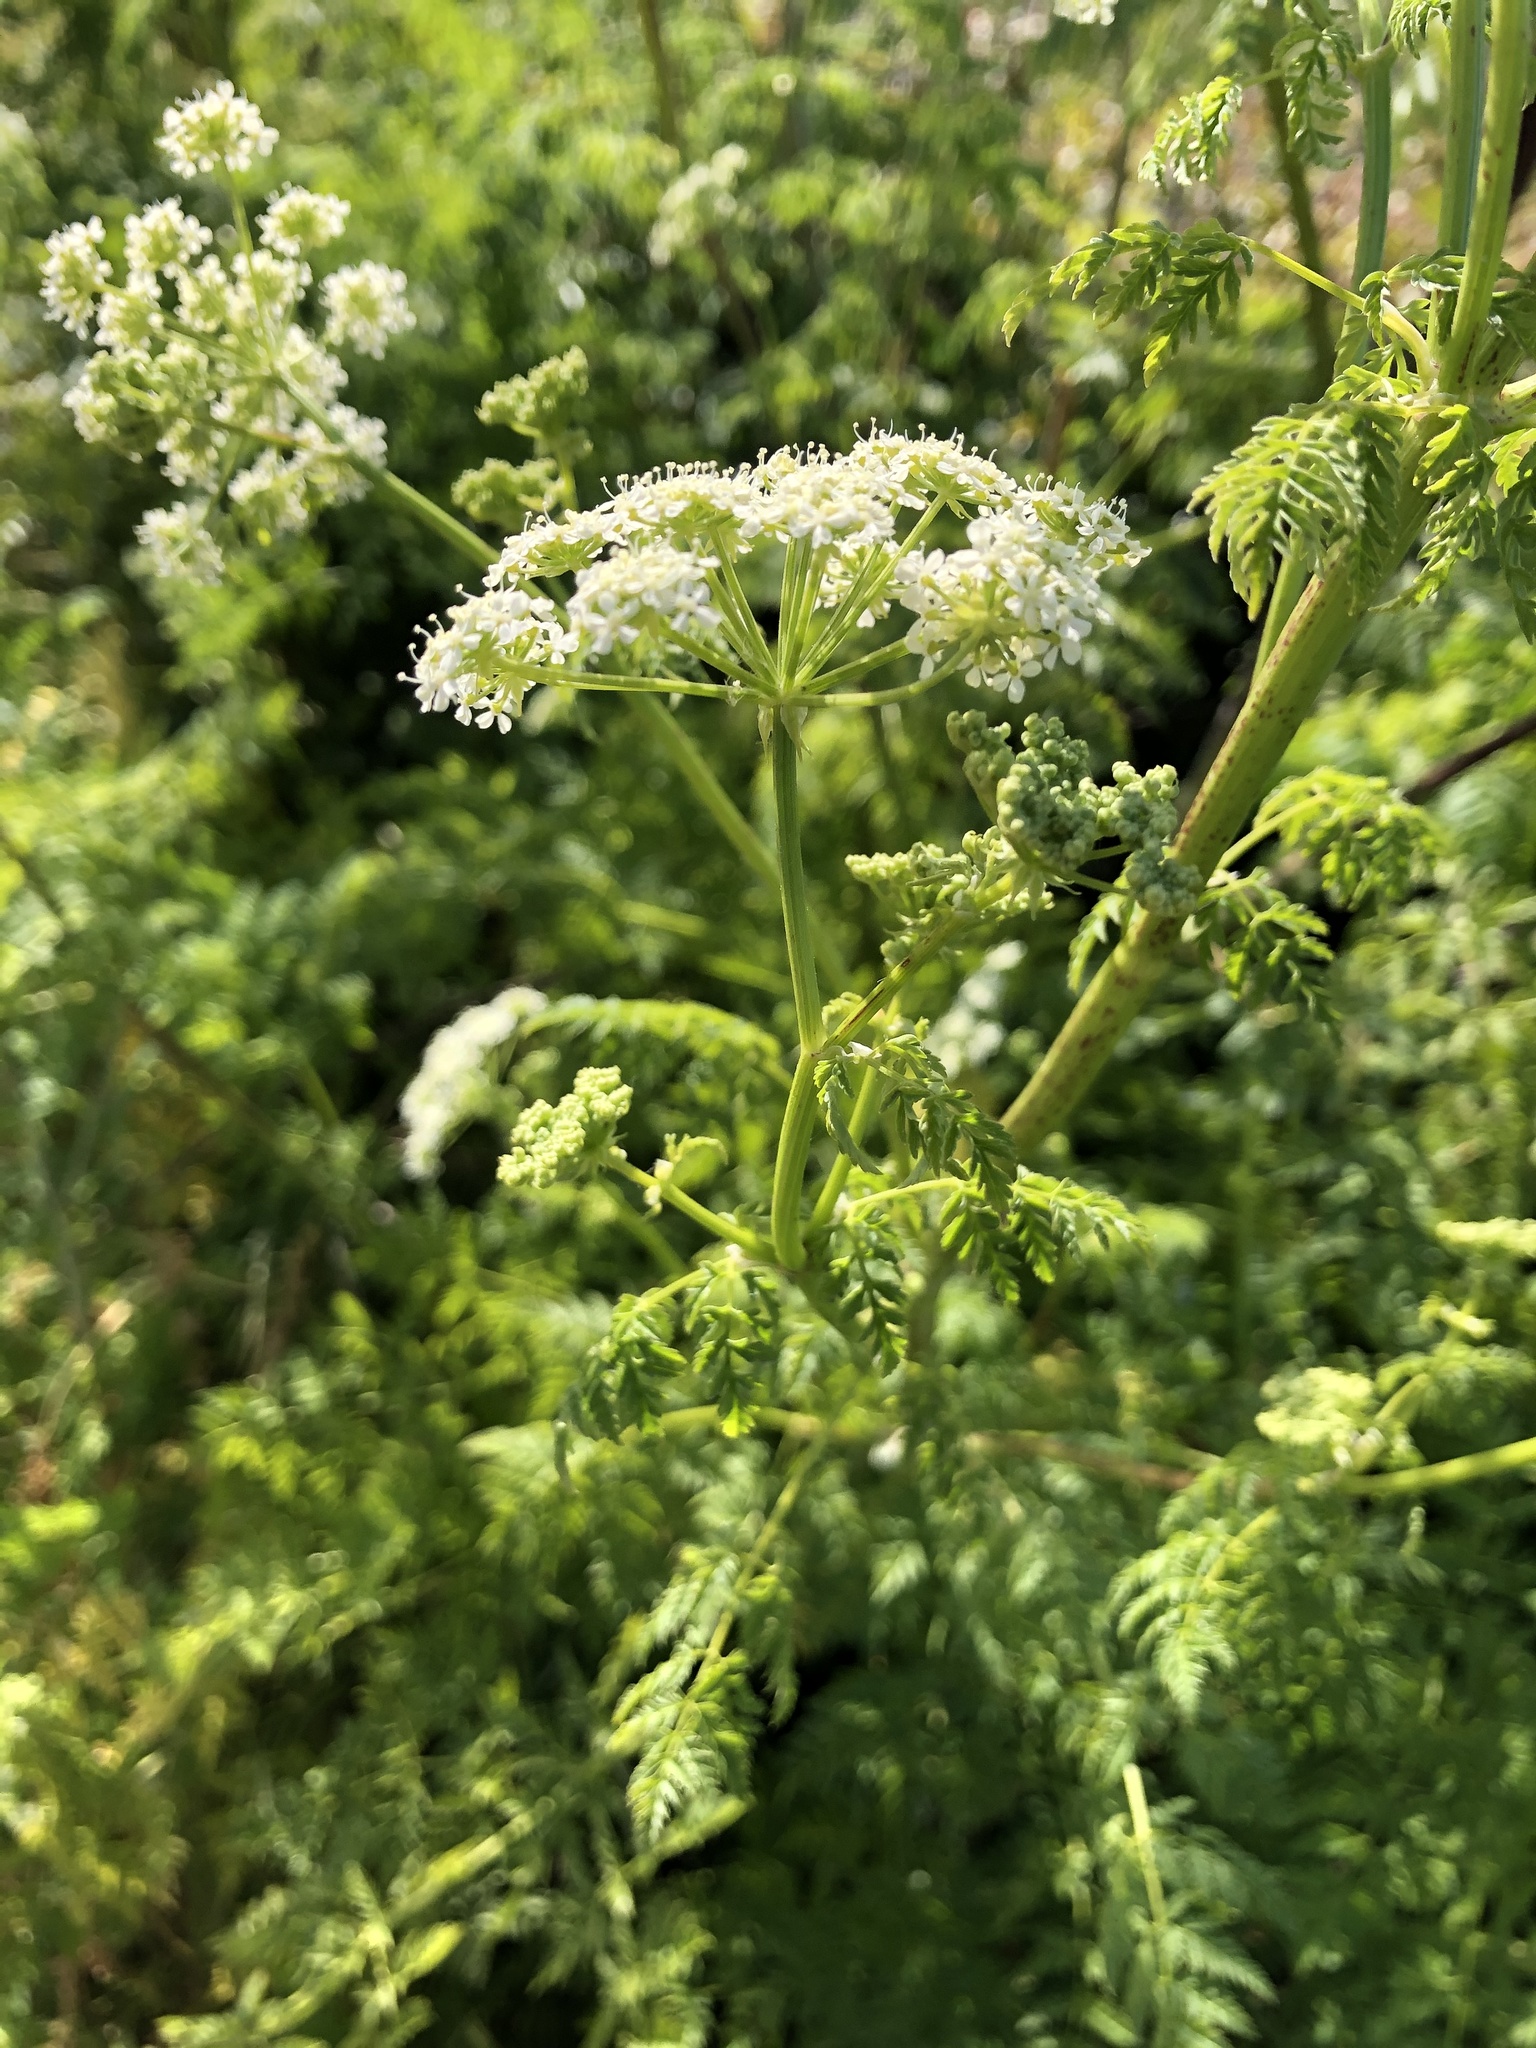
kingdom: Plantae
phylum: Tracheophyta
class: Magnoliopsida
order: Apiales
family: Apiaceae
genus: Conium
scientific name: Conium maculatum
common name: Hemlock
